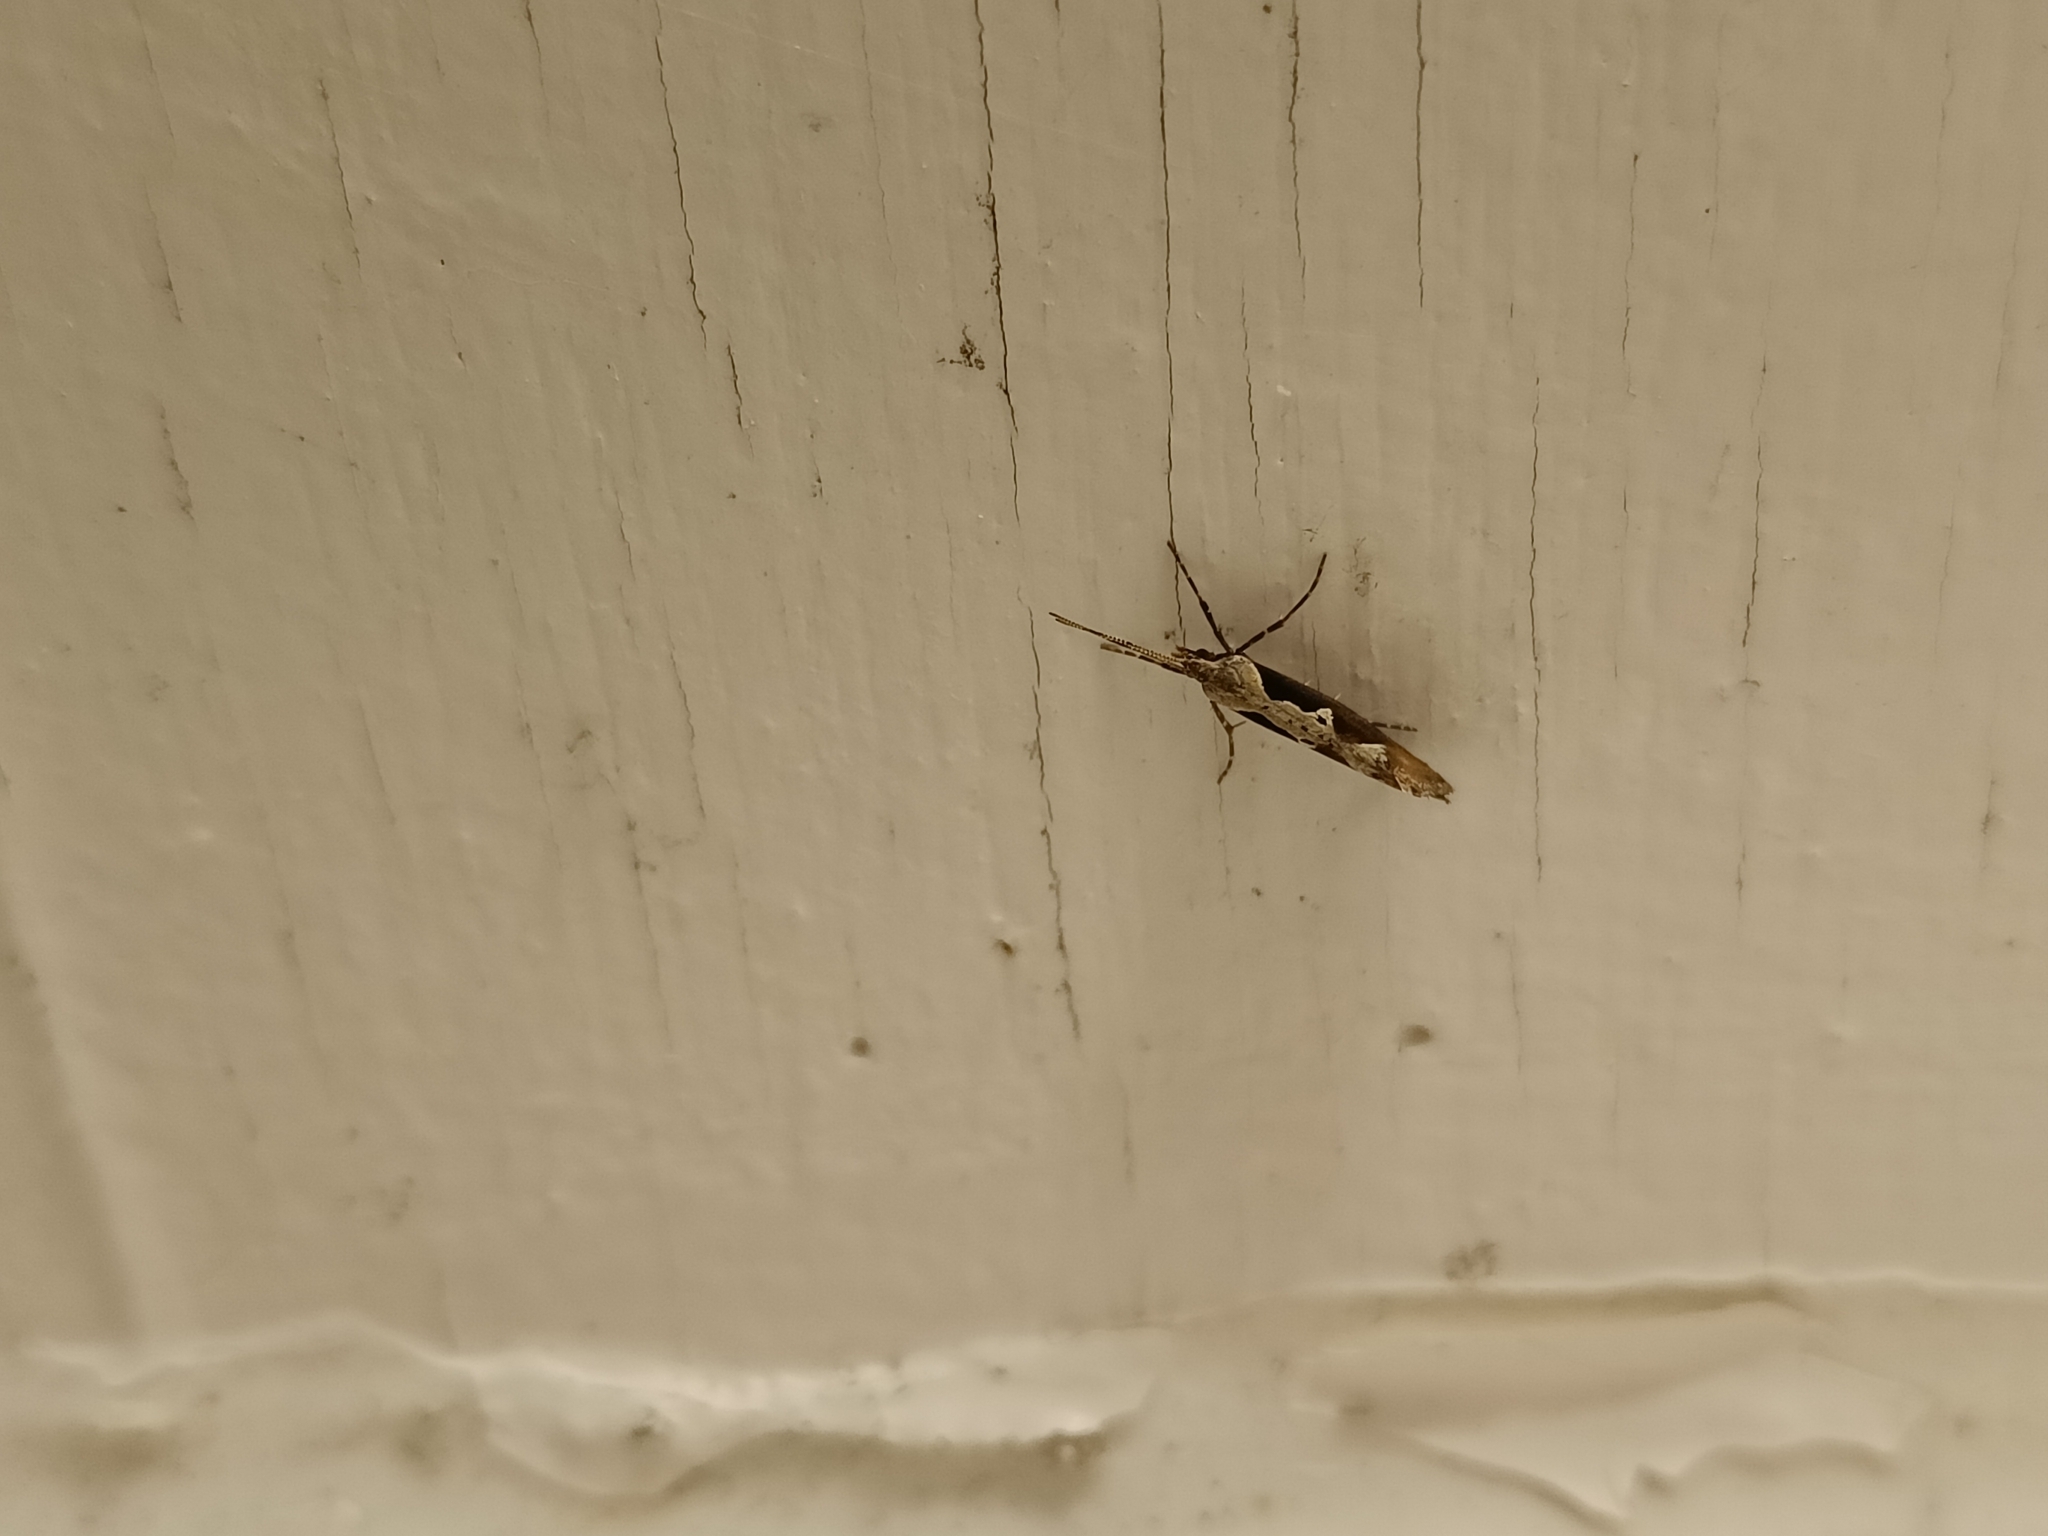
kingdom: Animalia
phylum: Arthropoda
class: Insecta
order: Lepidoptera
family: Plutellidae
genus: Plutella
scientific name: Plutella xylostella
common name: Diamond-back moth
